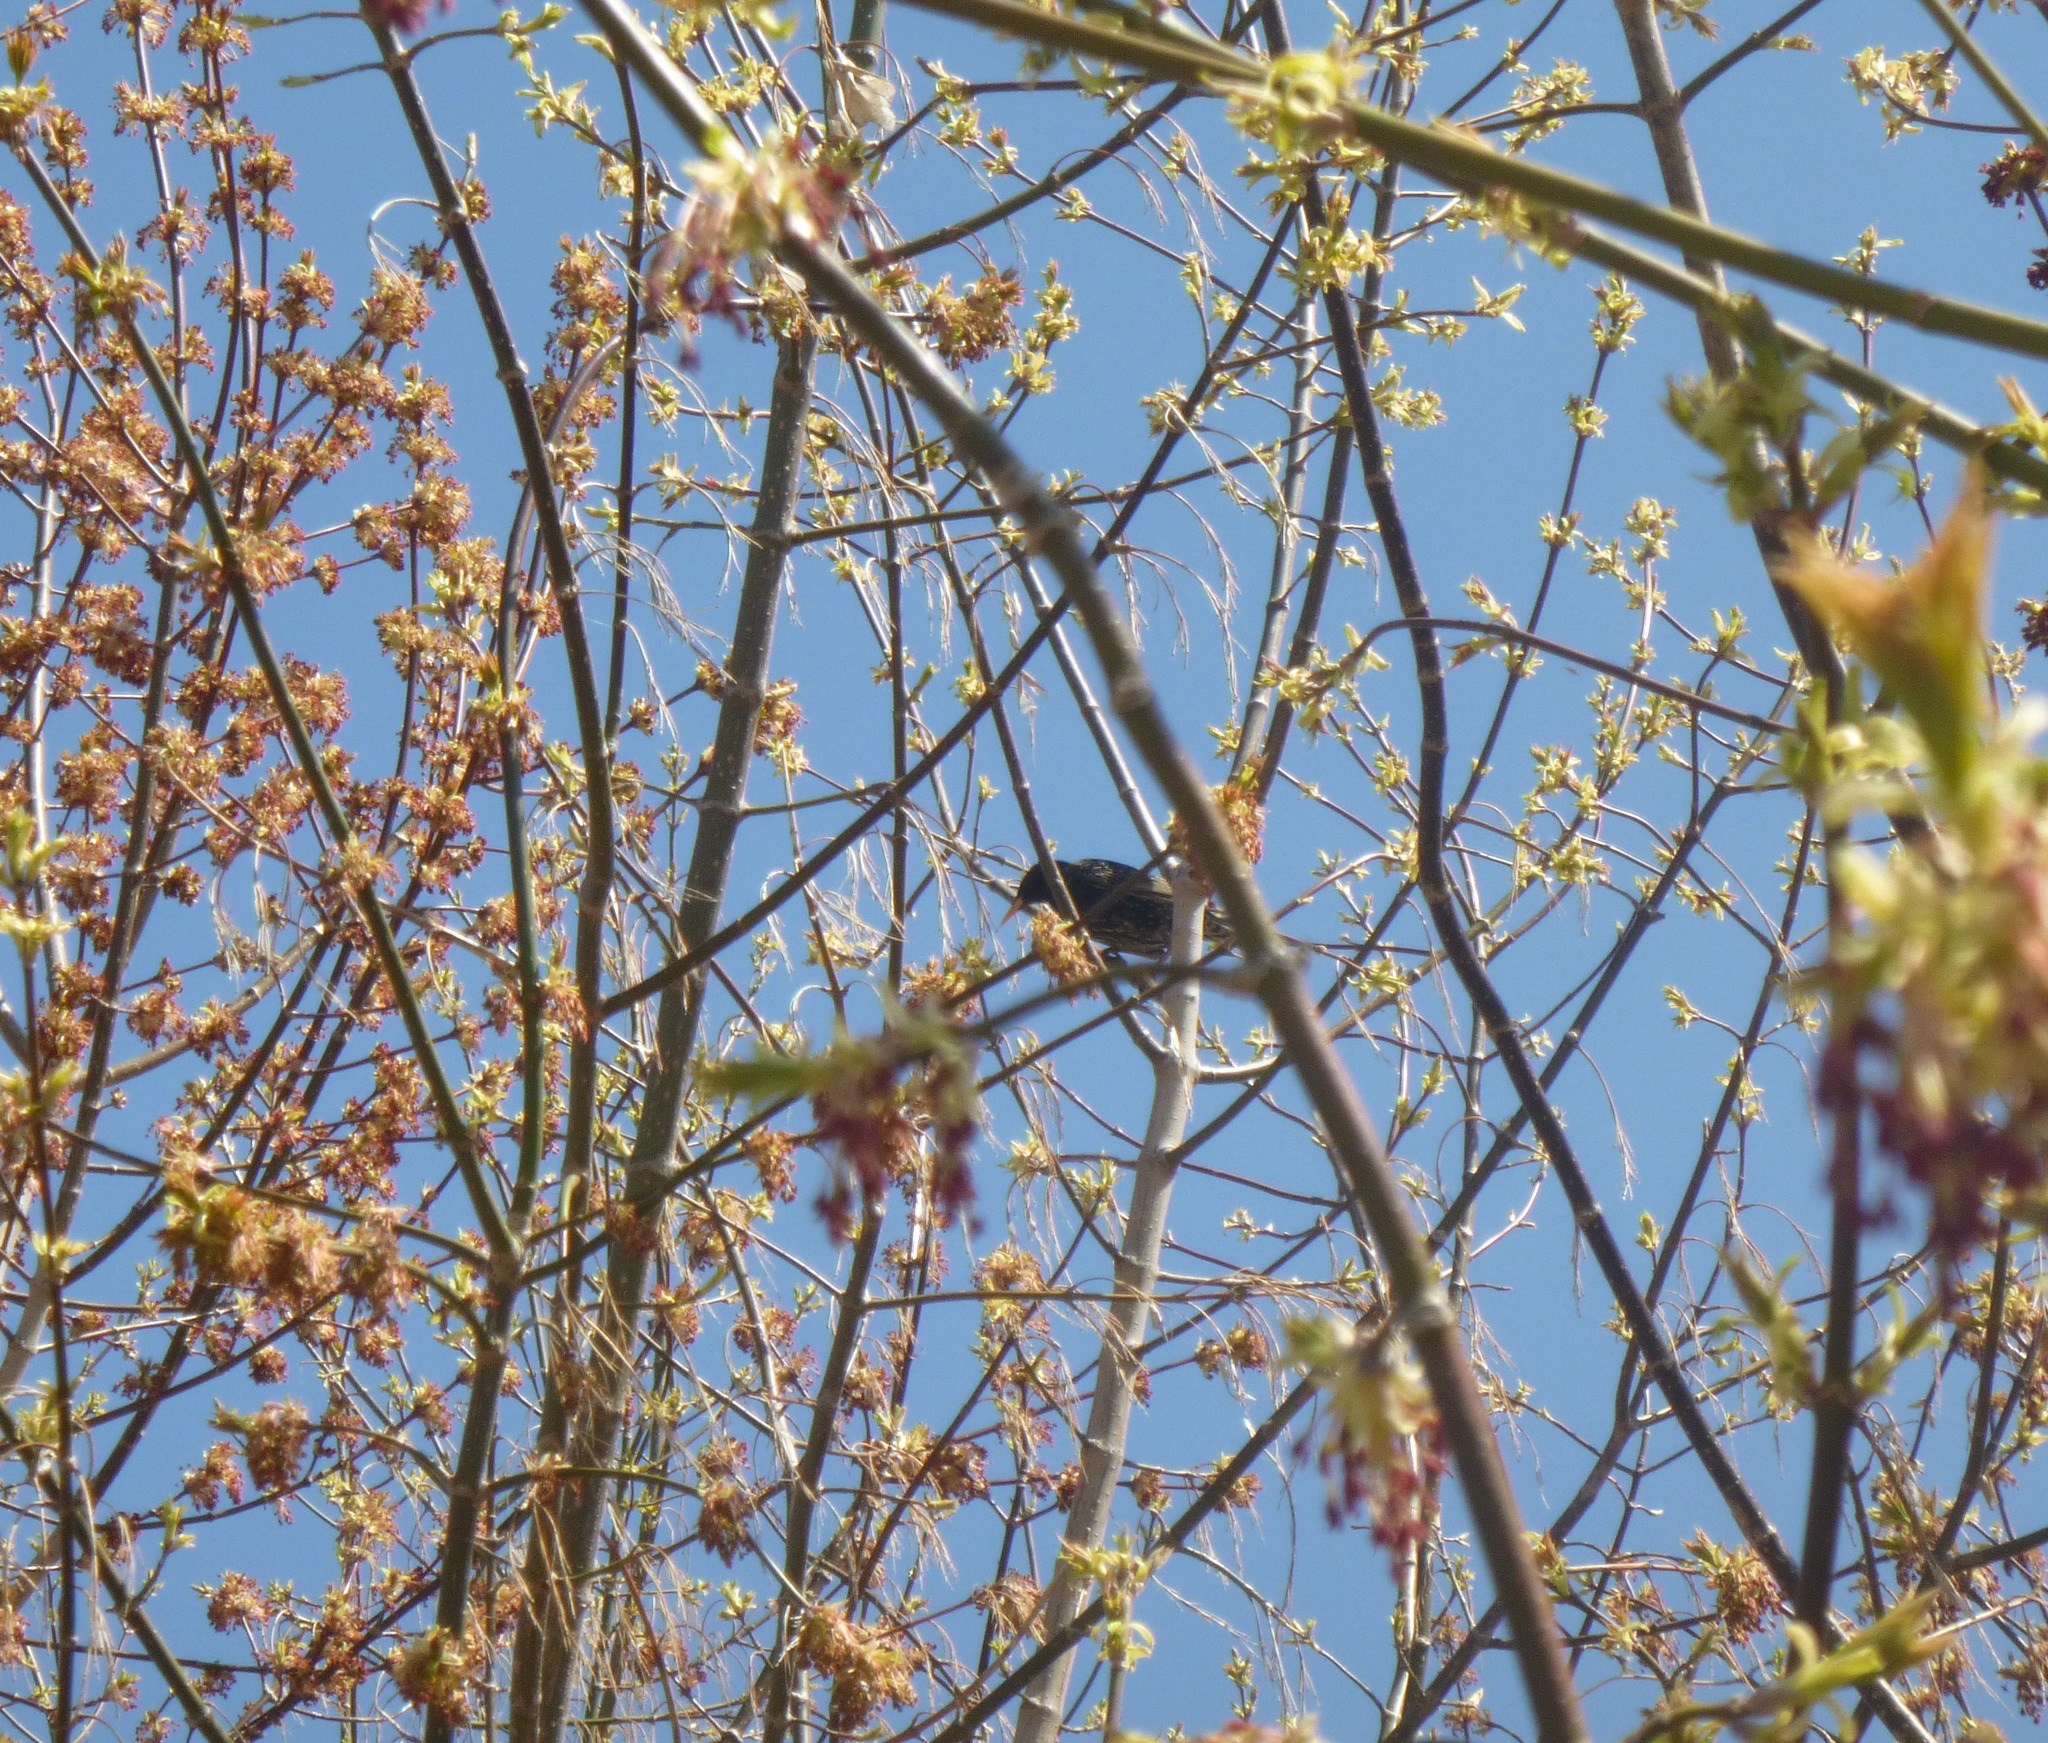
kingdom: Animalia
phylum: Chordata
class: Aves
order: Passeriformes
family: Sturnidae
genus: Sturnus
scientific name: Sturnus vulgaris
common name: Common starling
